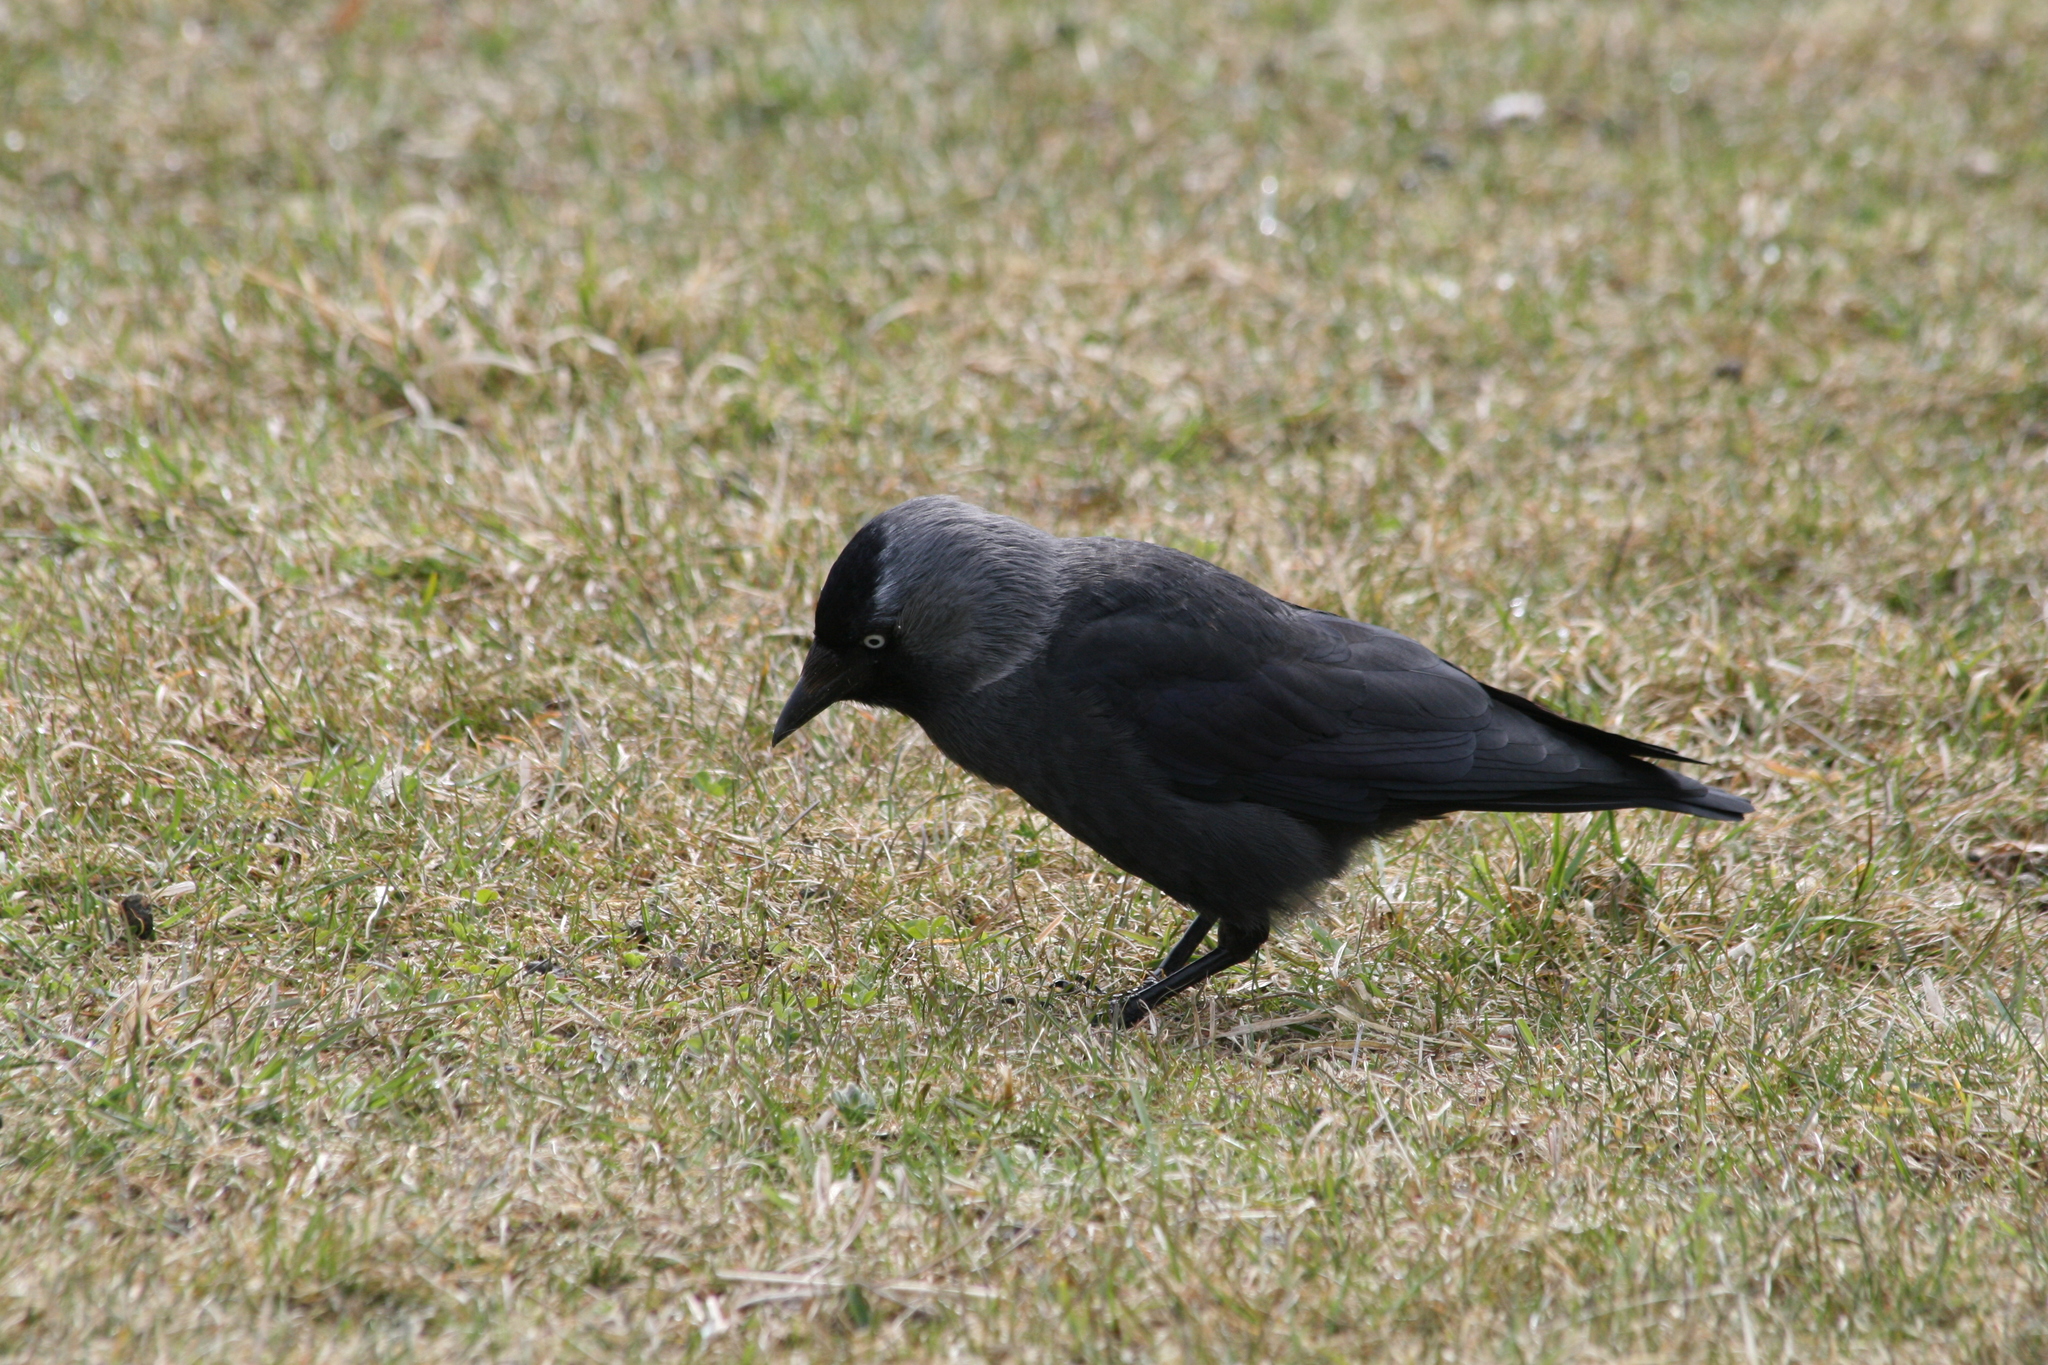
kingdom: Animalia
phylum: Chordata
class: Aves
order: Passeriformes
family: Corvidae
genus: Coloeus
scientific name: Coloeus monedula
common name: Western jackdaw
